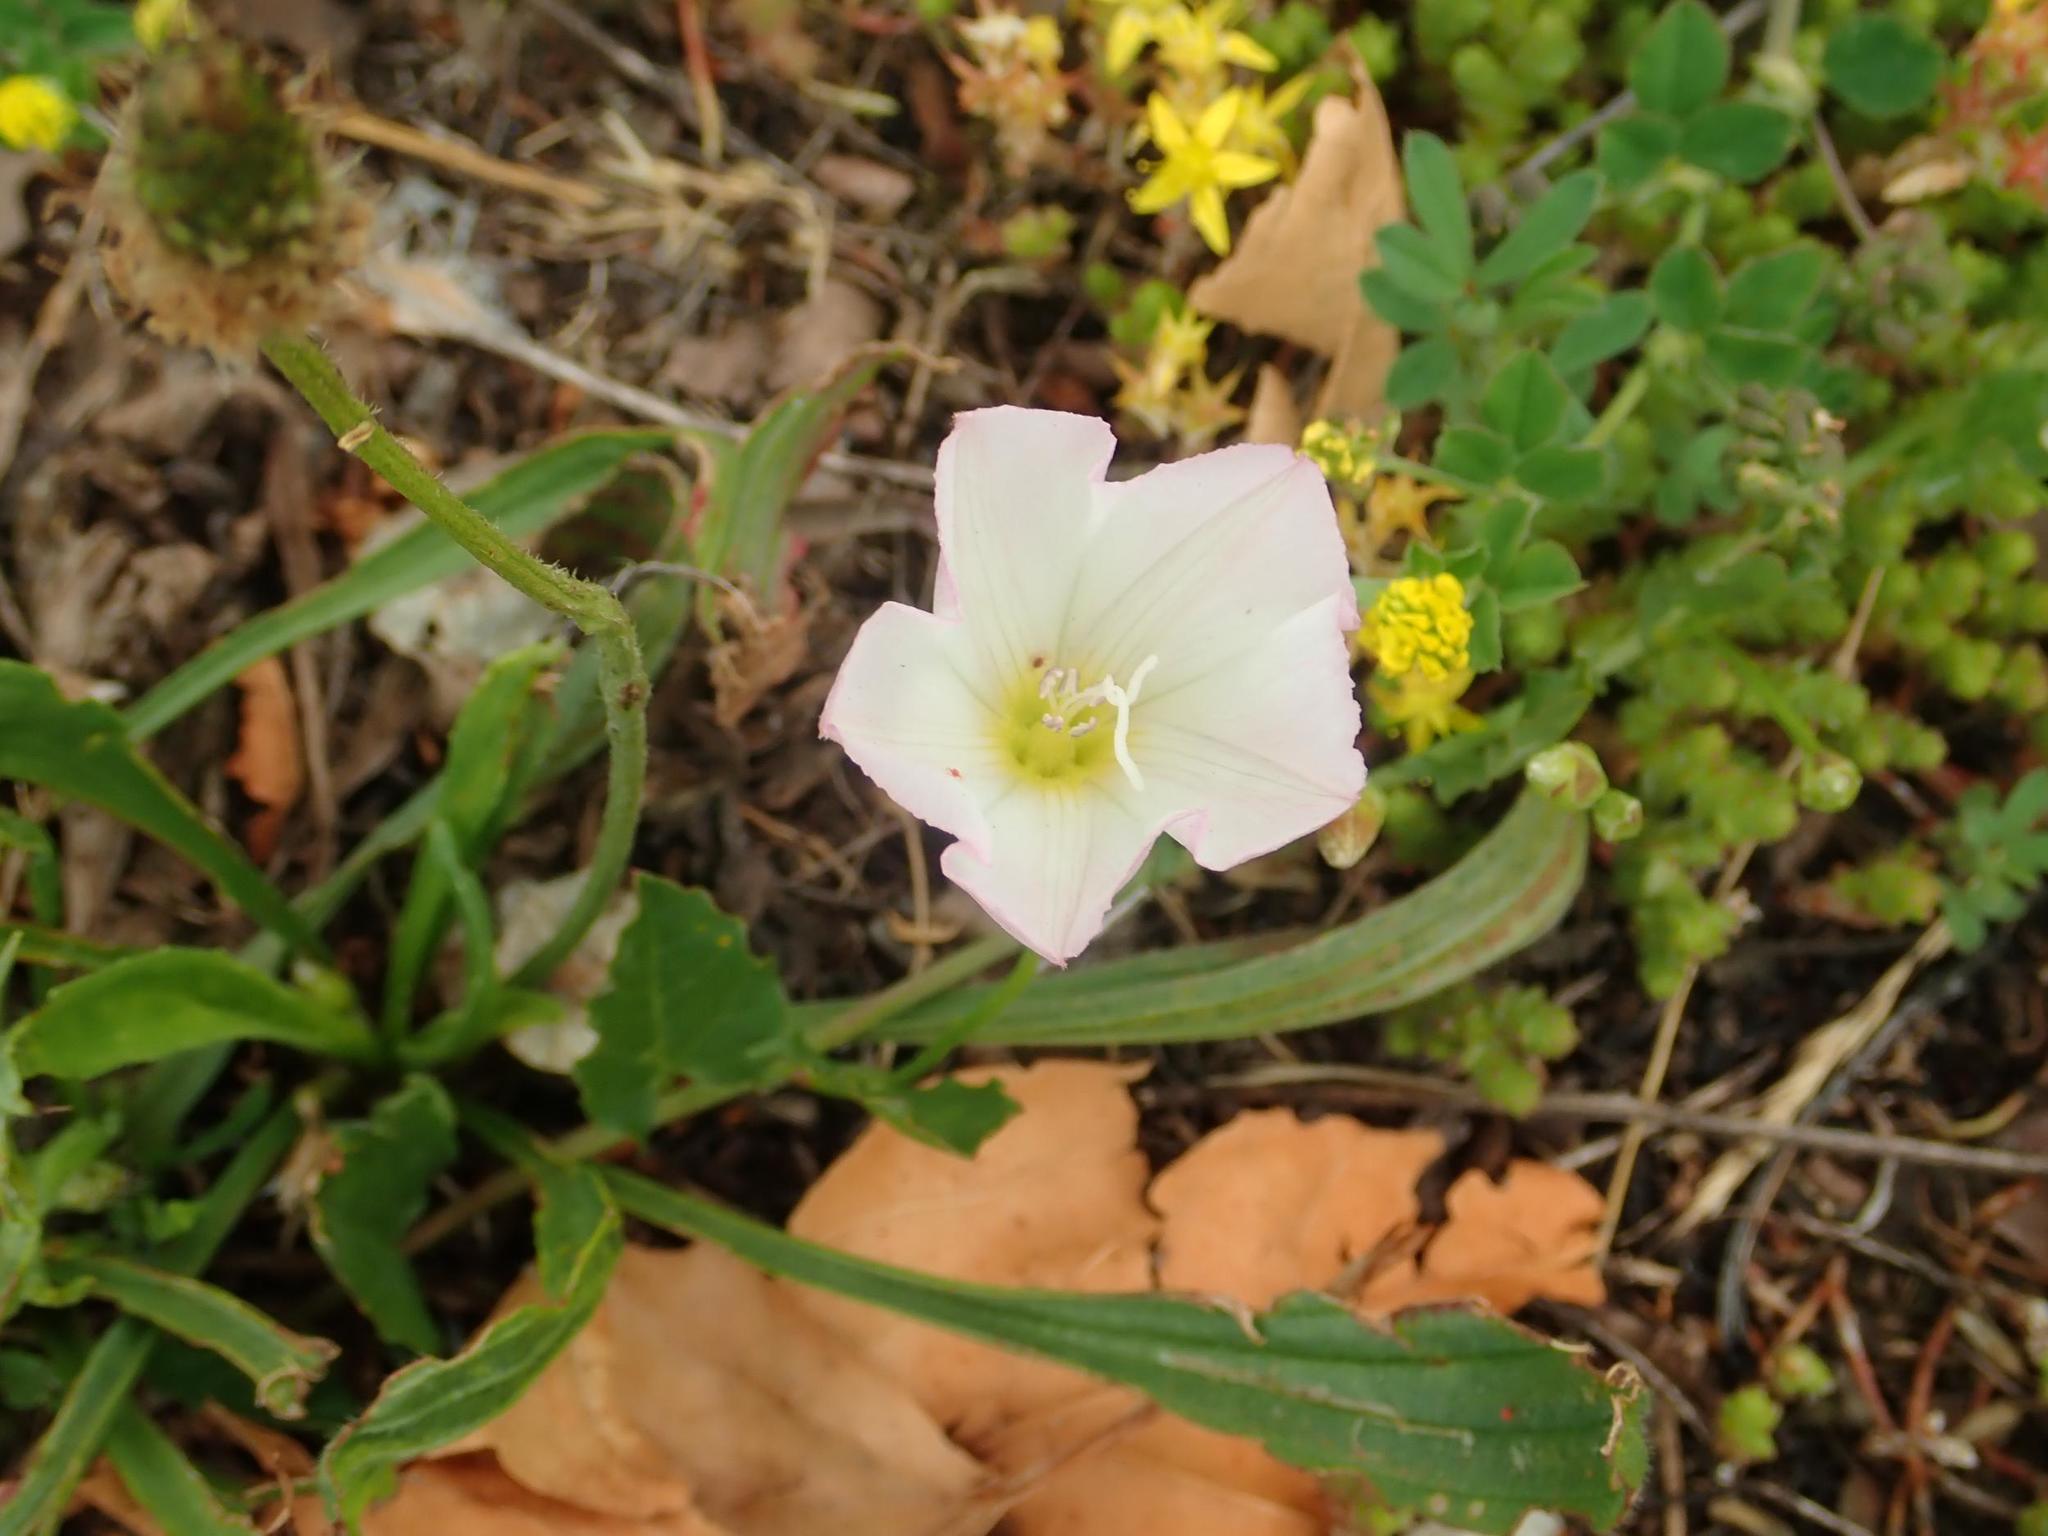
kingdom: Plantae
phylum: Tracheophyta
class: Magnoliopsida
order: Solanales
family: Convolvulaceae
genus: Convolvulus
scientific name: Convolvulus arvensis
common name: Field bindweed
